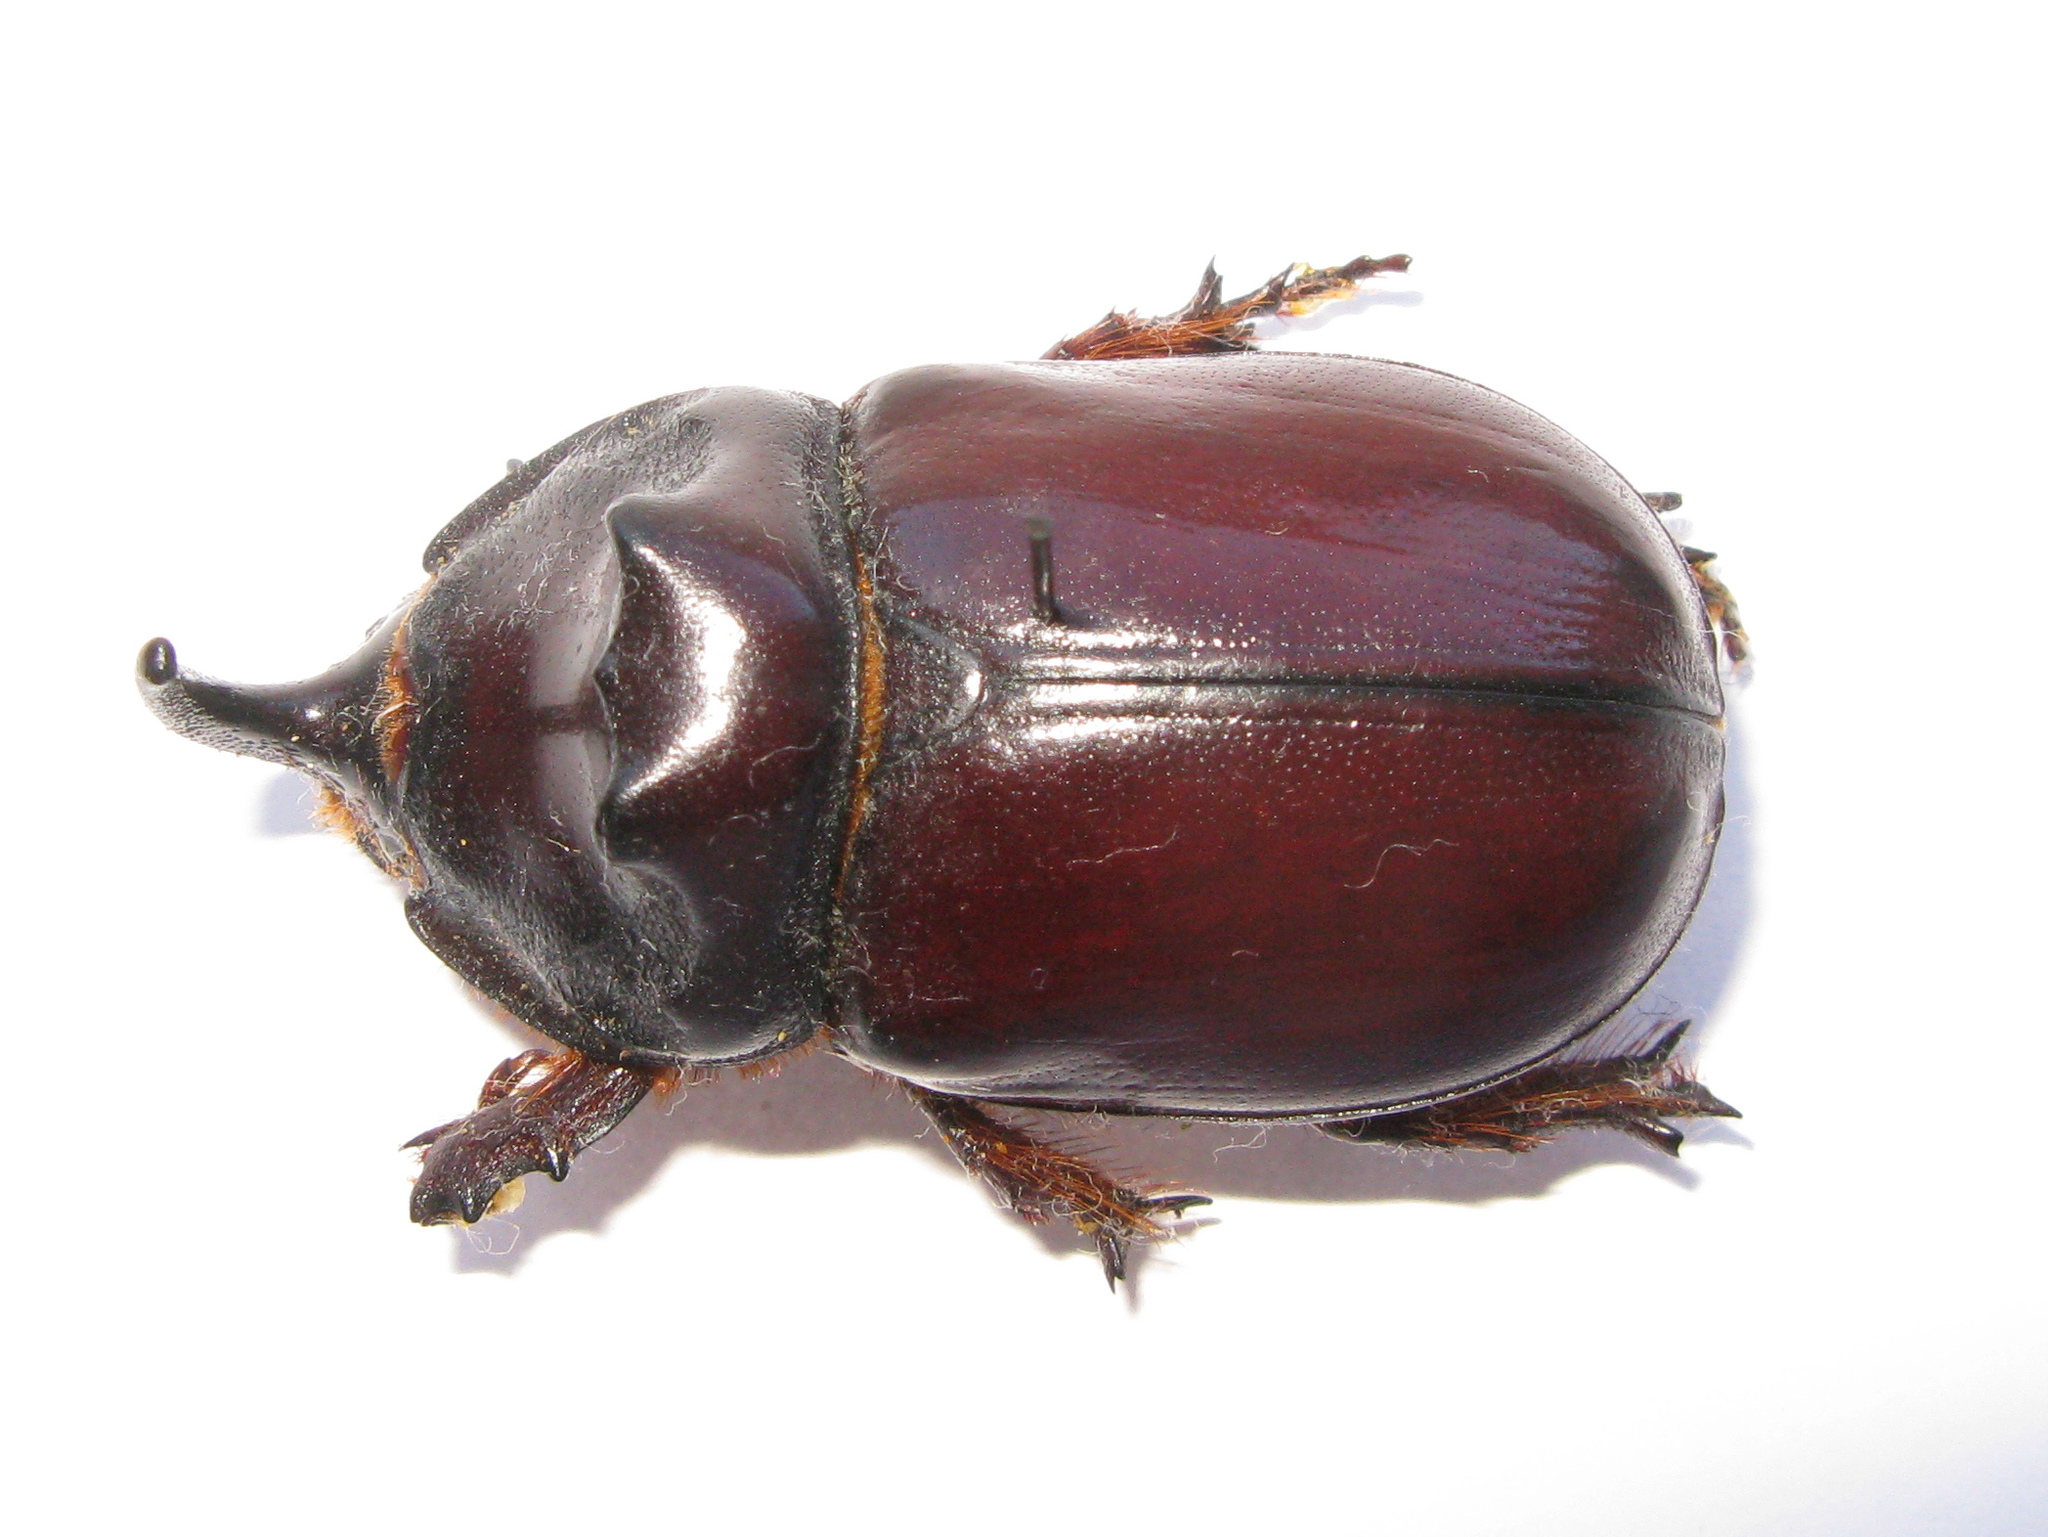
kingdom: Animalia
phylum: Arthropoda
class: Insecta
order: Coleoptera
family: Scarabaeidae
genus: Oryctes
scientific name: Oryctes nasicornis
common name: European rhinoceros beetle
